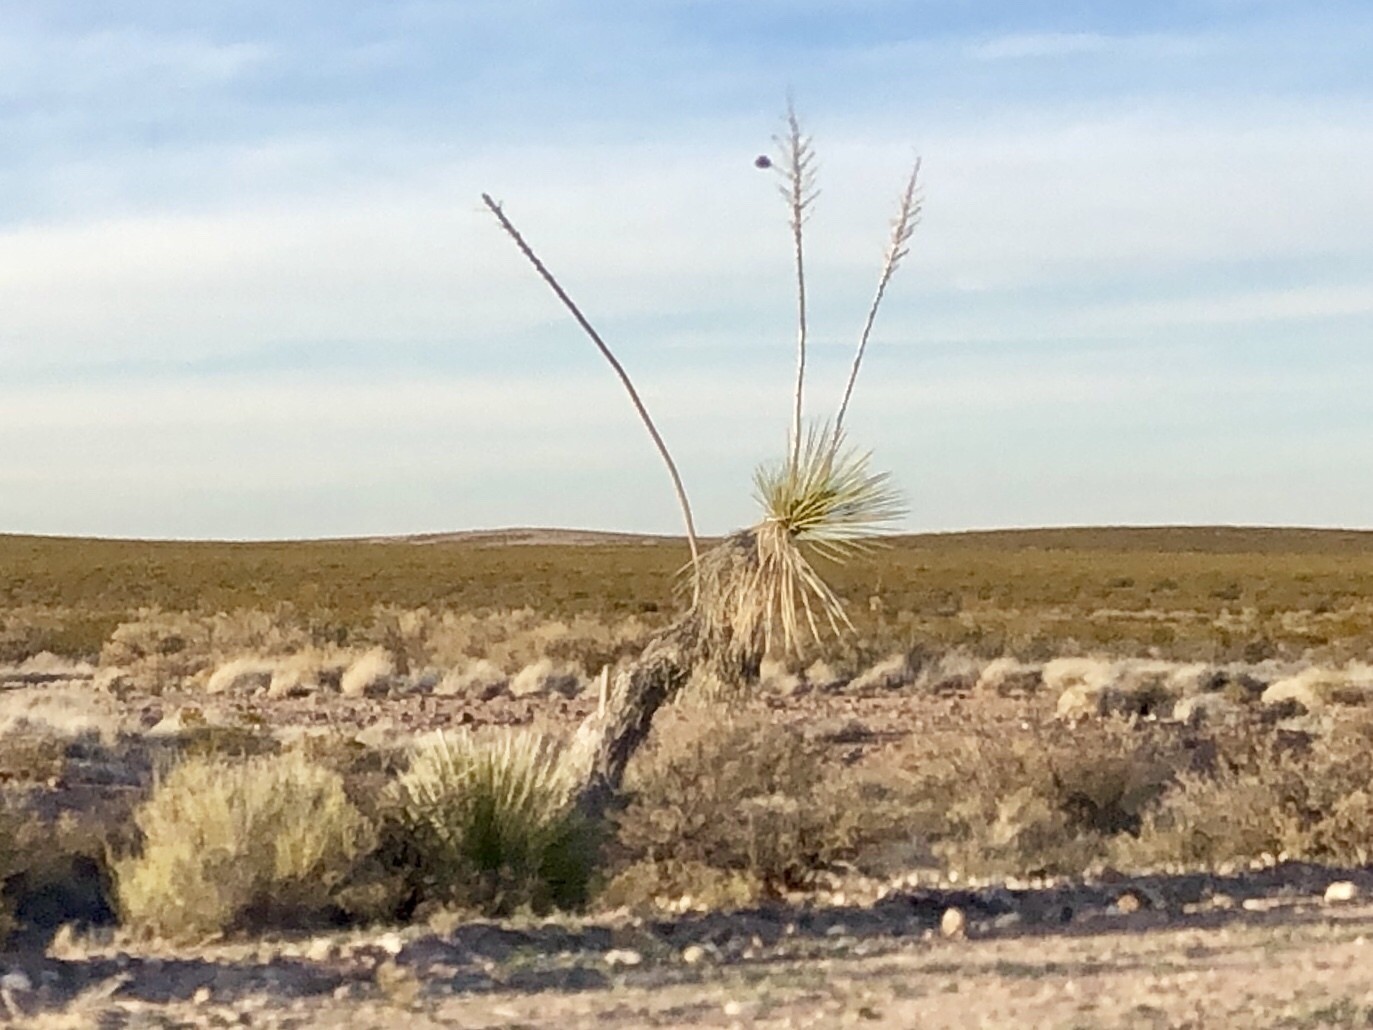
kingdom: Plantae
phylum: Tracheophyta
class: Liliopsida
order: Asparagales
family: Asparagaceae
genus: Yucca
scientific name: Yucca elata
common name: Palmella
